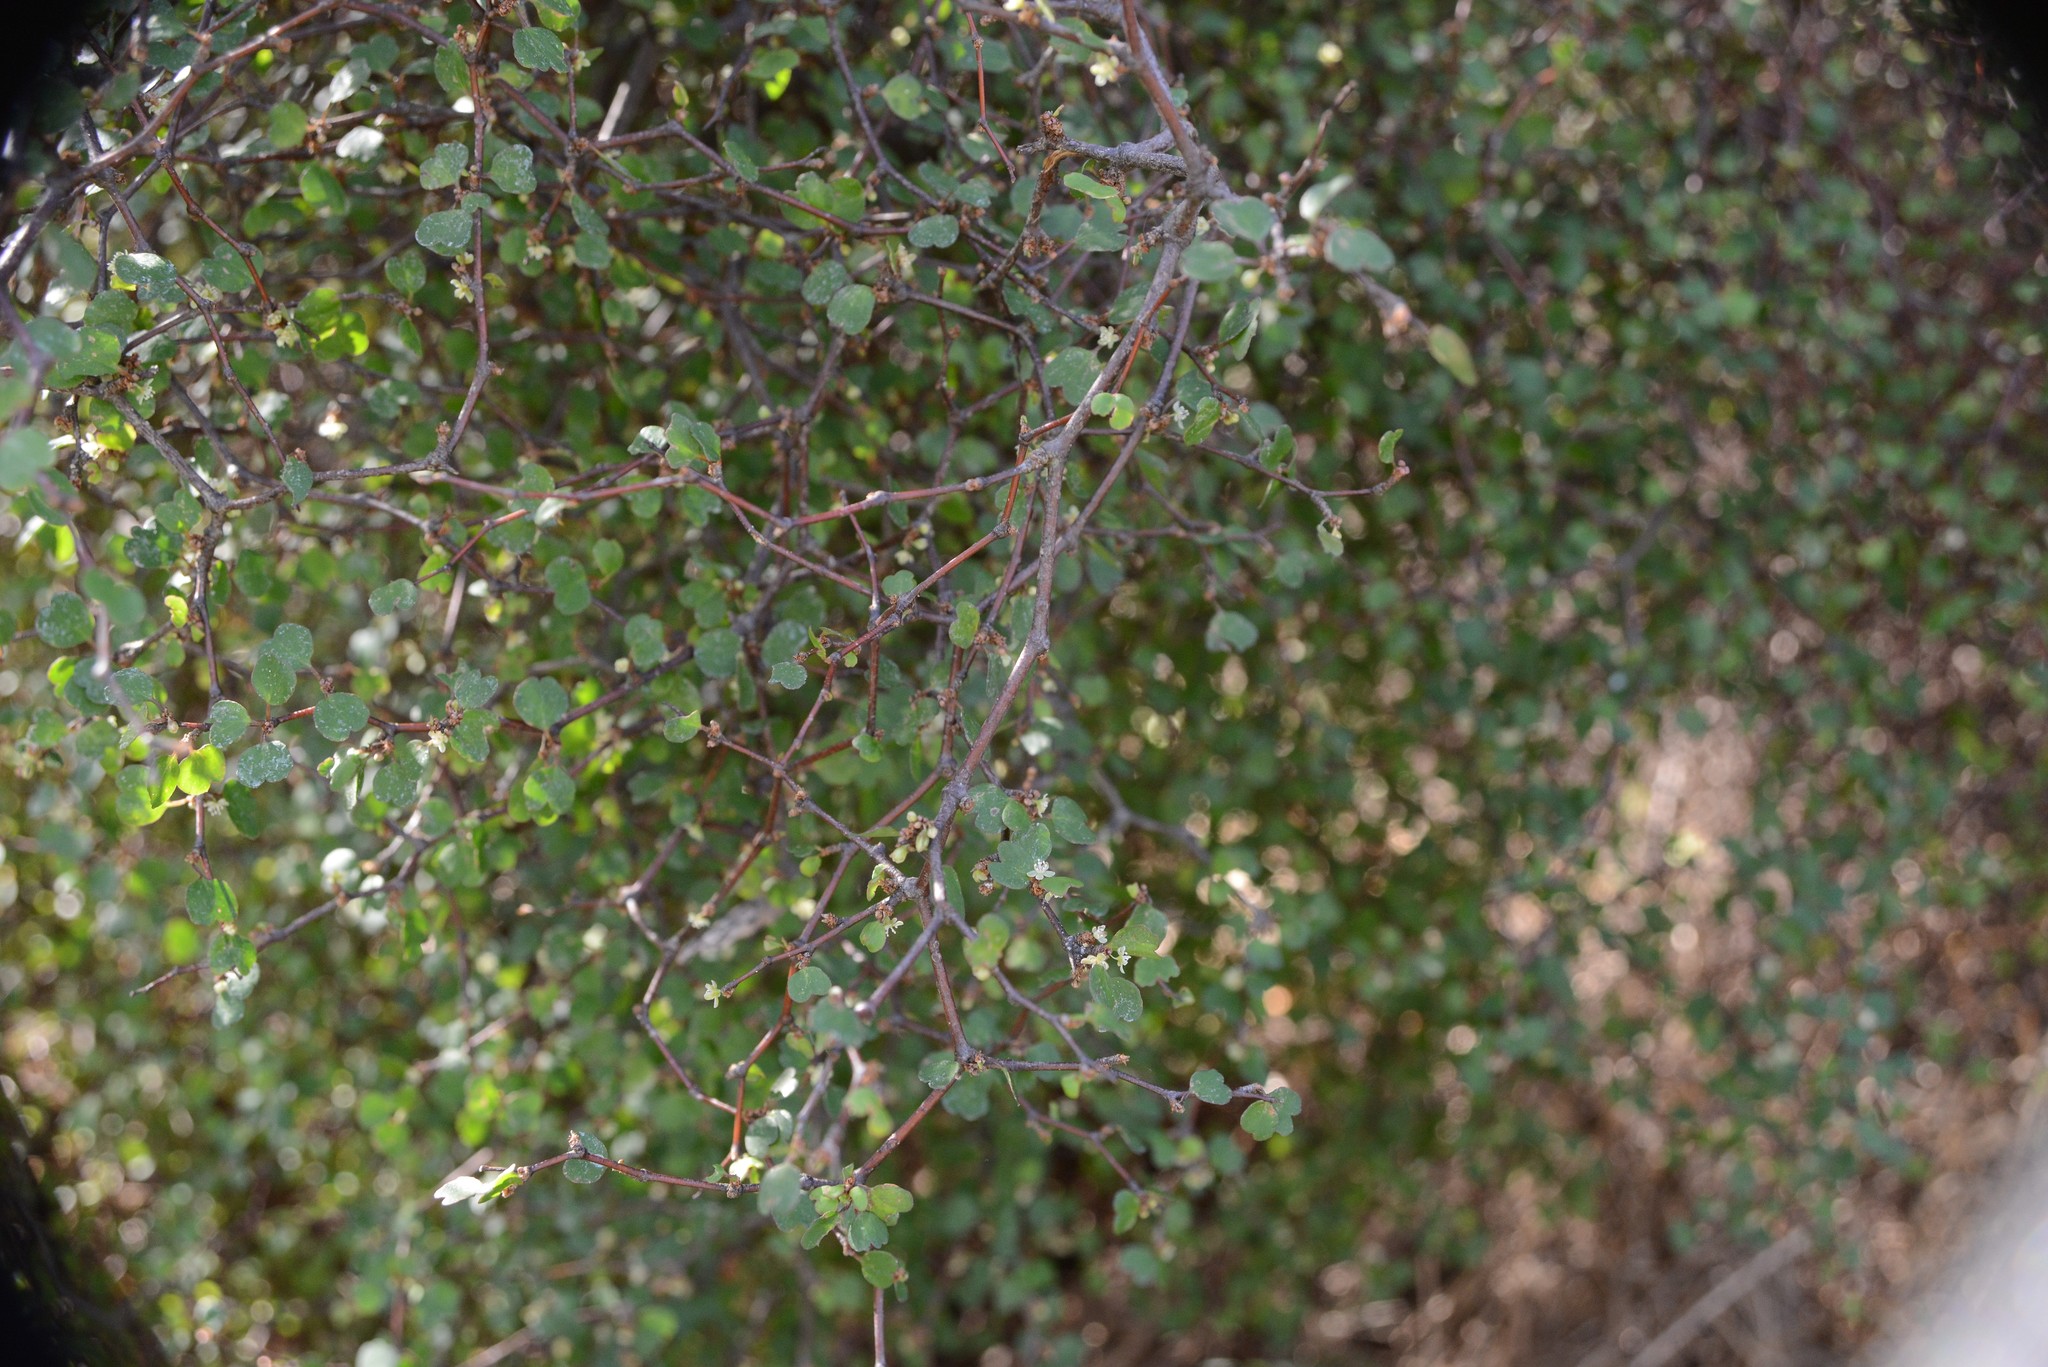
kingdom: Plantae
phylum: Tracheophyta
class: Magnoliopsida
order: Caryophyllales
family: Polygonaceae
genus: Muehlenbeckia
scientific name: Muehlenbeckia astonii
